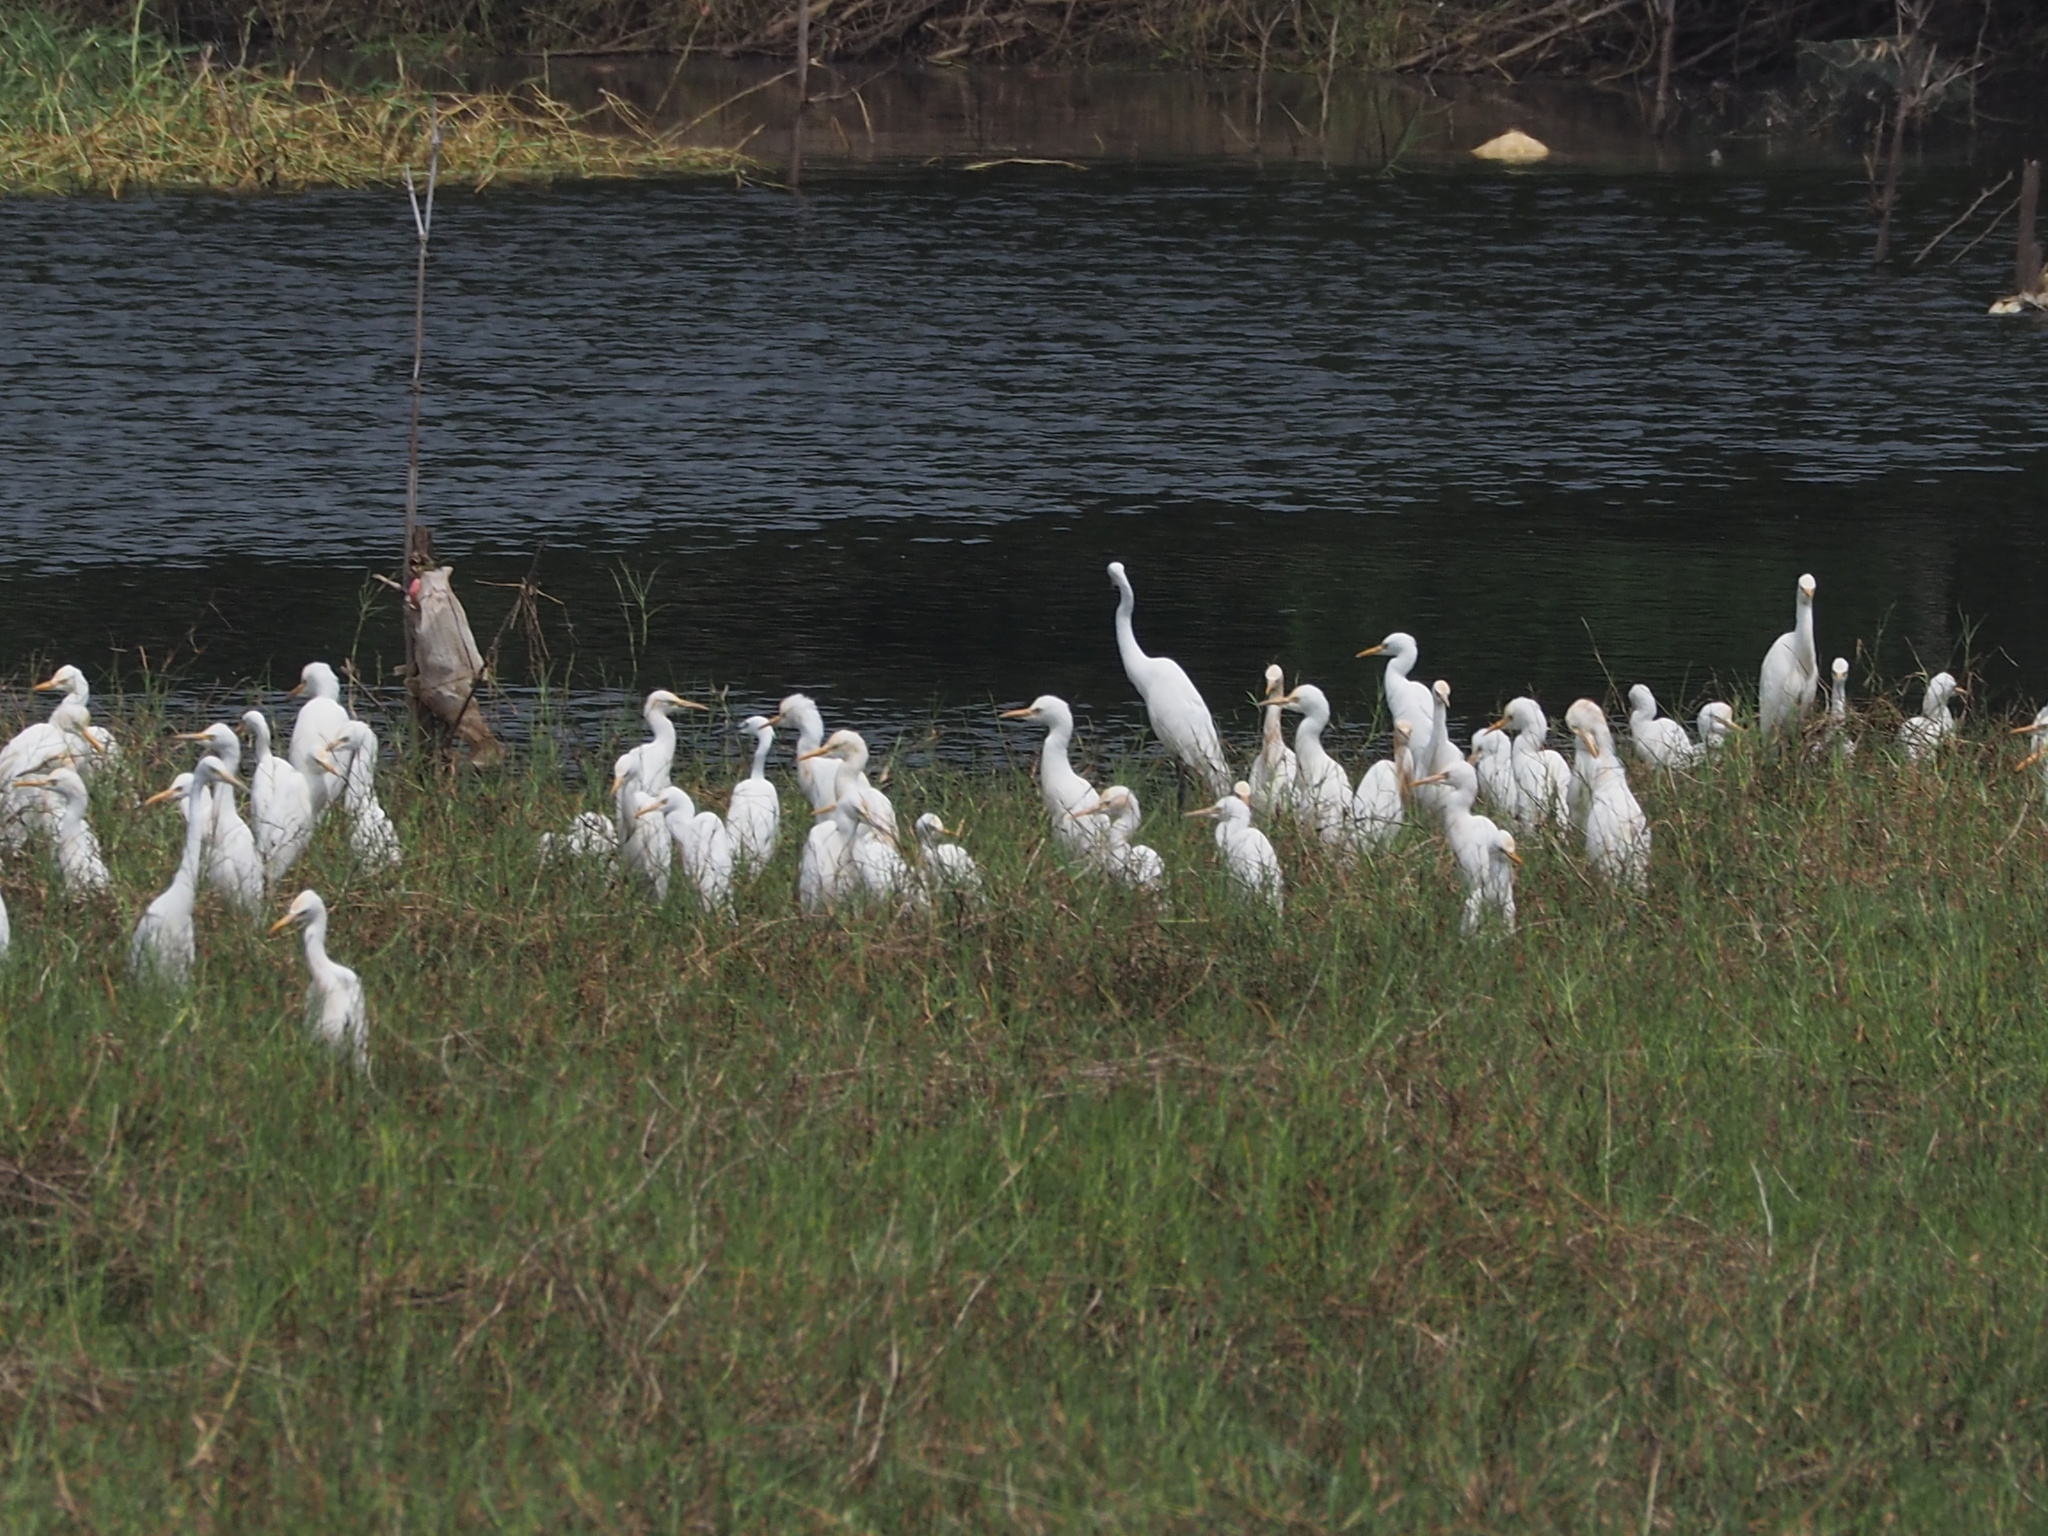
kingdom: Animalia
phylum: Chordata
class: Aves
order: Pelecaniformes
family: Ardeidae
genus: Bubulcus
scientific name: Bubulcus coromandus
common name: Eastern cattle egret
